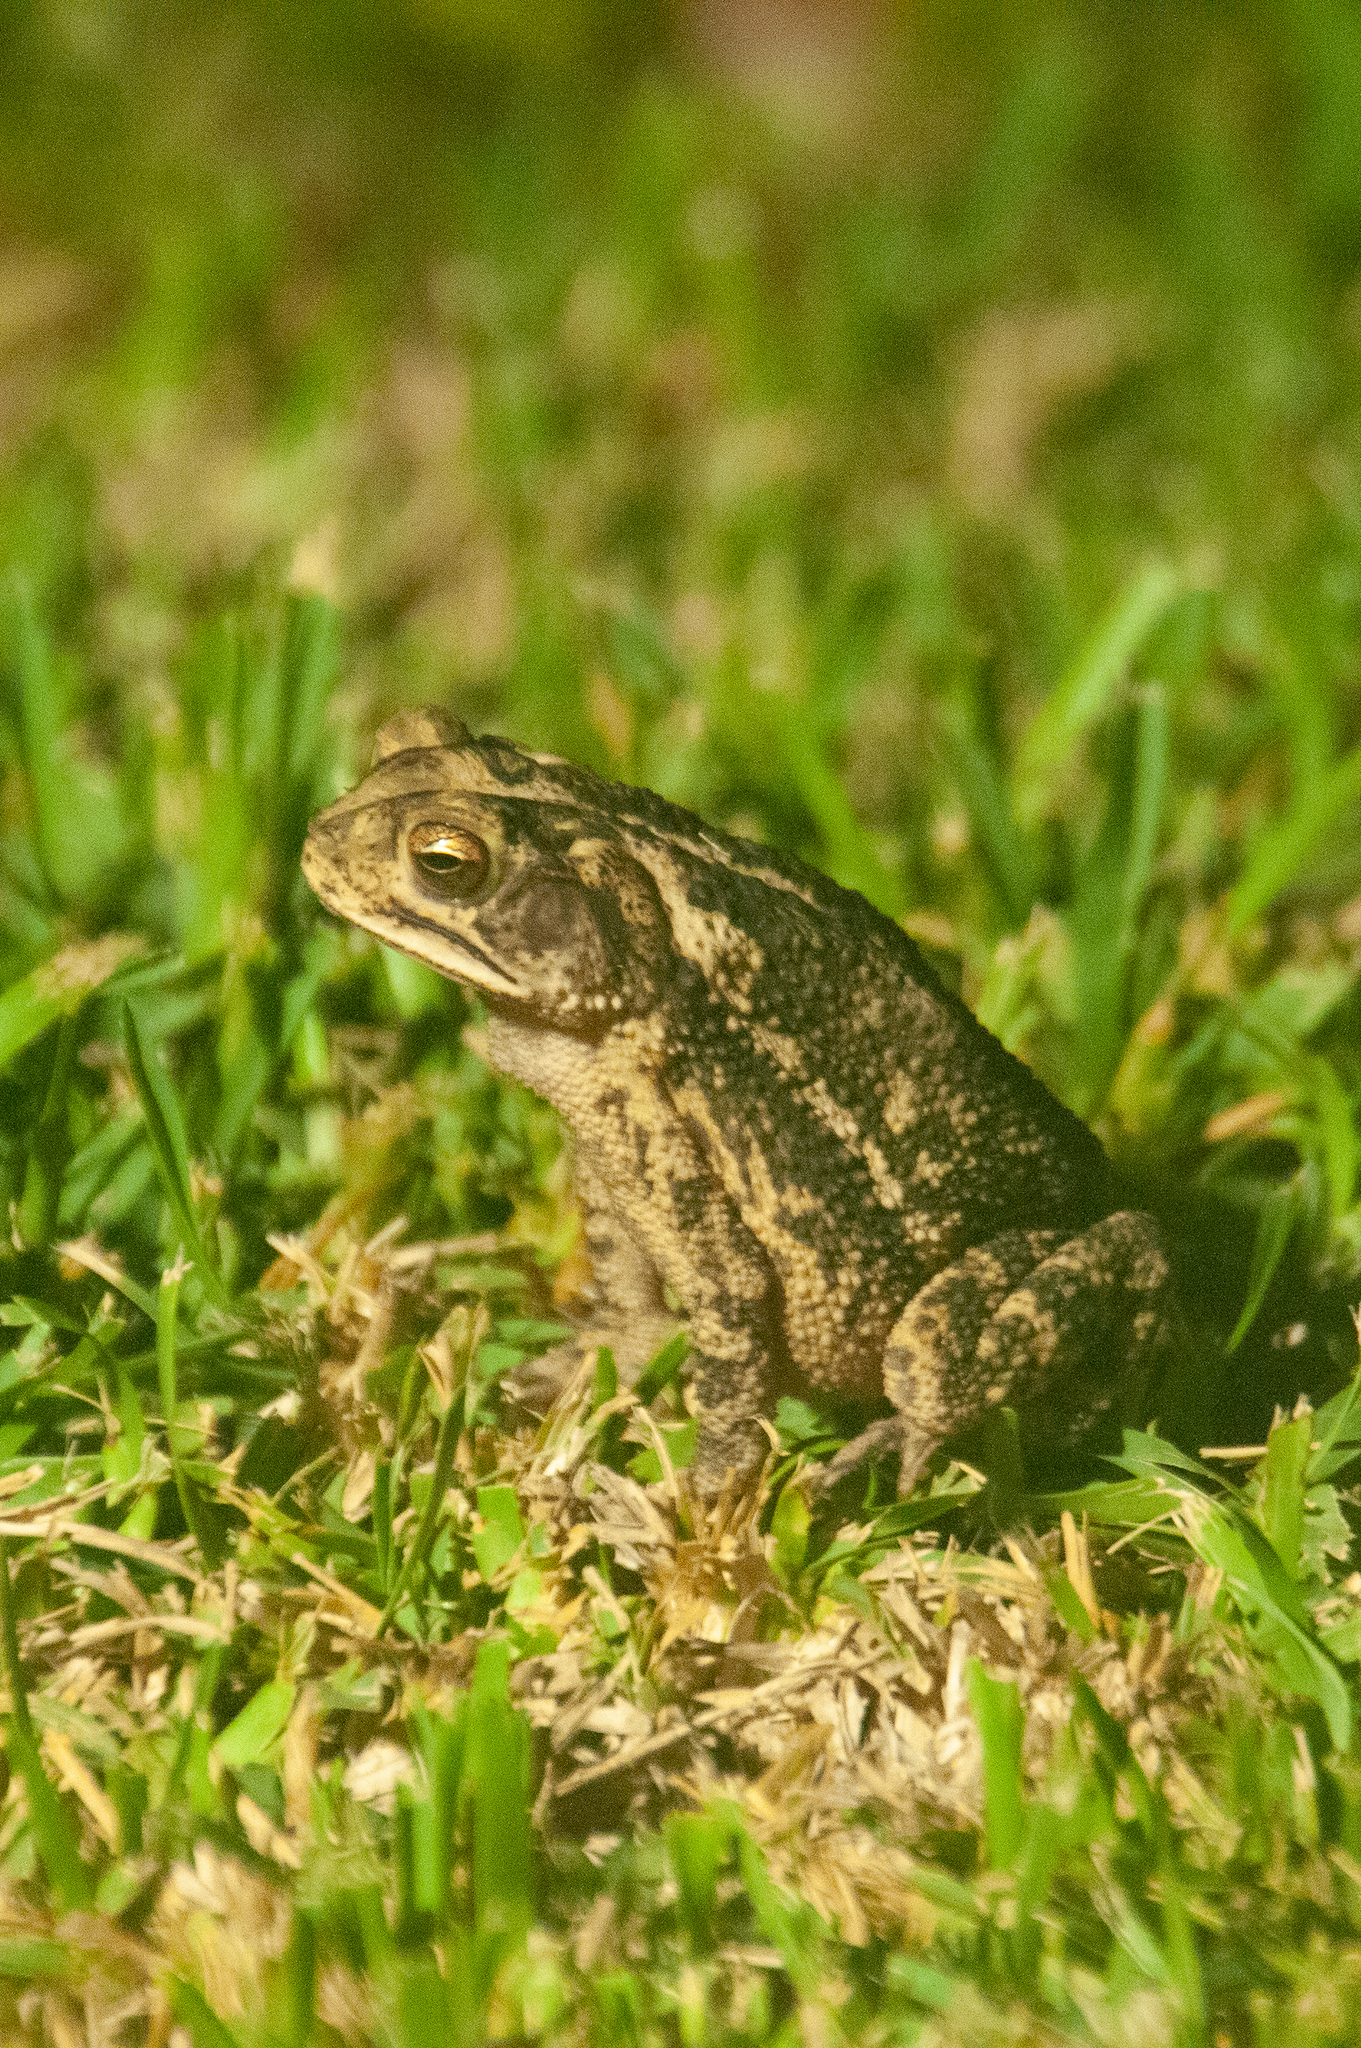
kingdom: Animalia
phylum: Chordata
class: Amphibia
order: Anura
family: Bufonidae
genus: Incilius
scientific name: Incilius nebulifer
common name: Gulf coast toad
